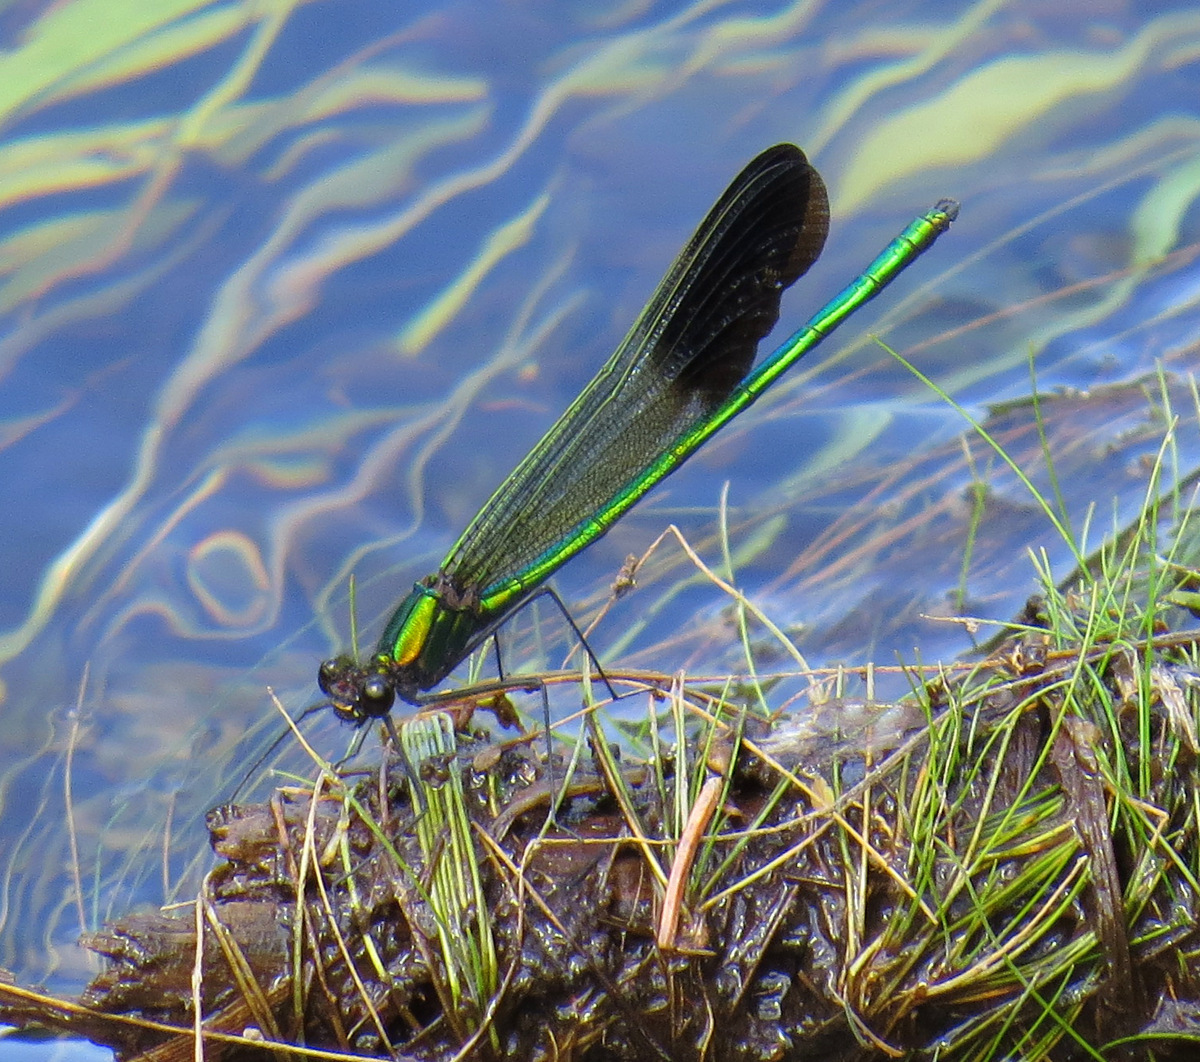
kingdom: Animalia
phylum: Arthropoda
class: Insecta
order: Odonata
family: Calopterygidae
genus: Calopteryx
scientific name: Calopteryx aequabilis
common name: River jewelwing
